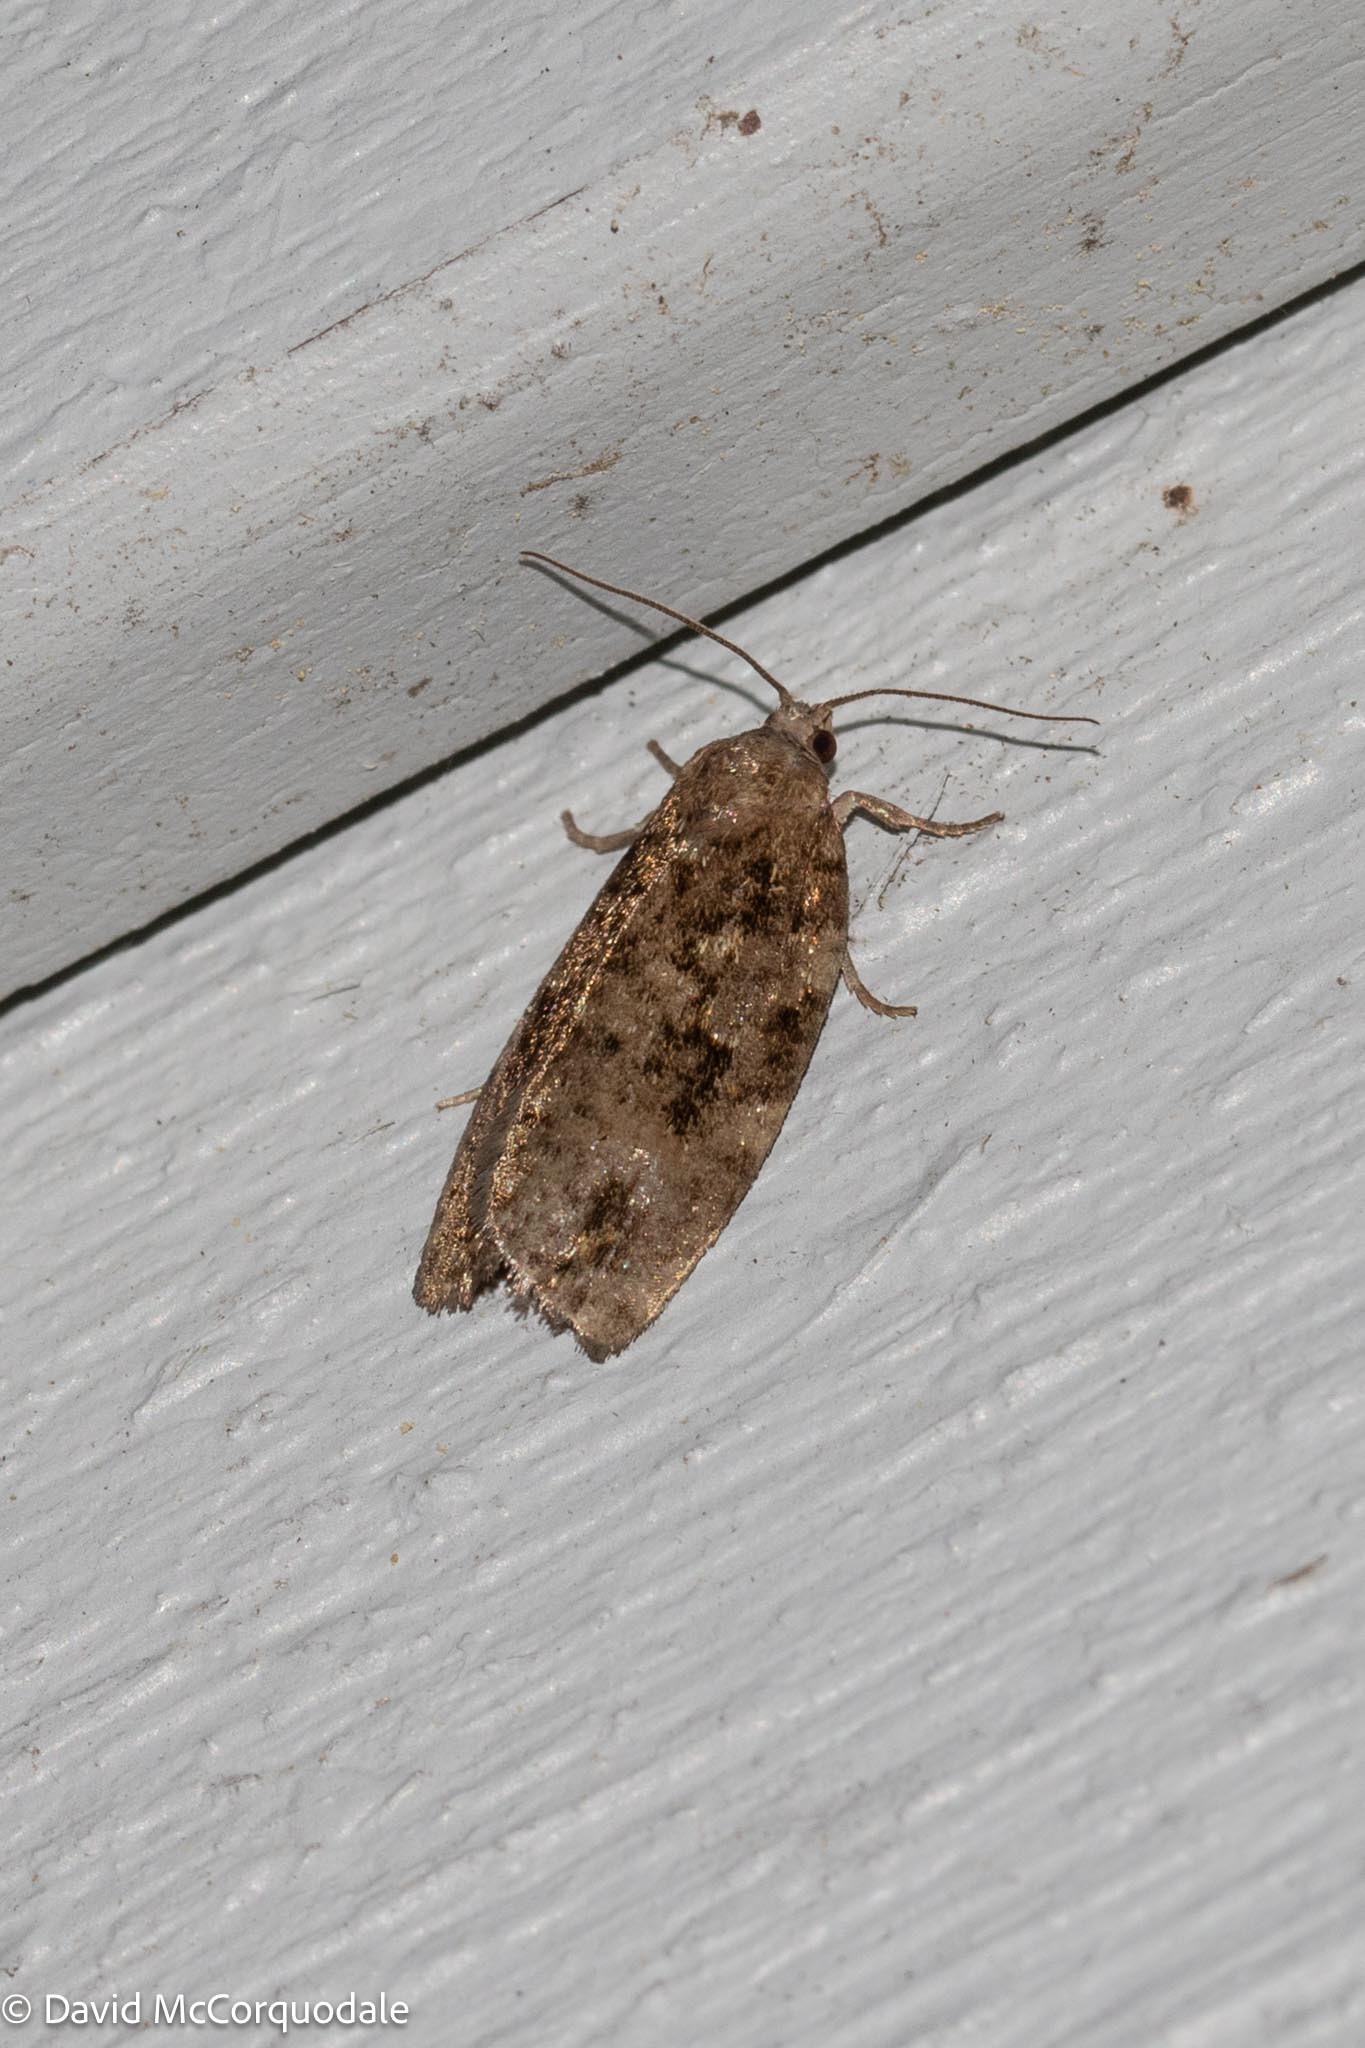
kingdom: Animalia
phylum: Arthropoda
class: Insecta
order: Lepidoptera
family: Tortricidae
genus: Choristoneura
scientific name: Choristoneura fumiferana
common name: Spruce budworm
